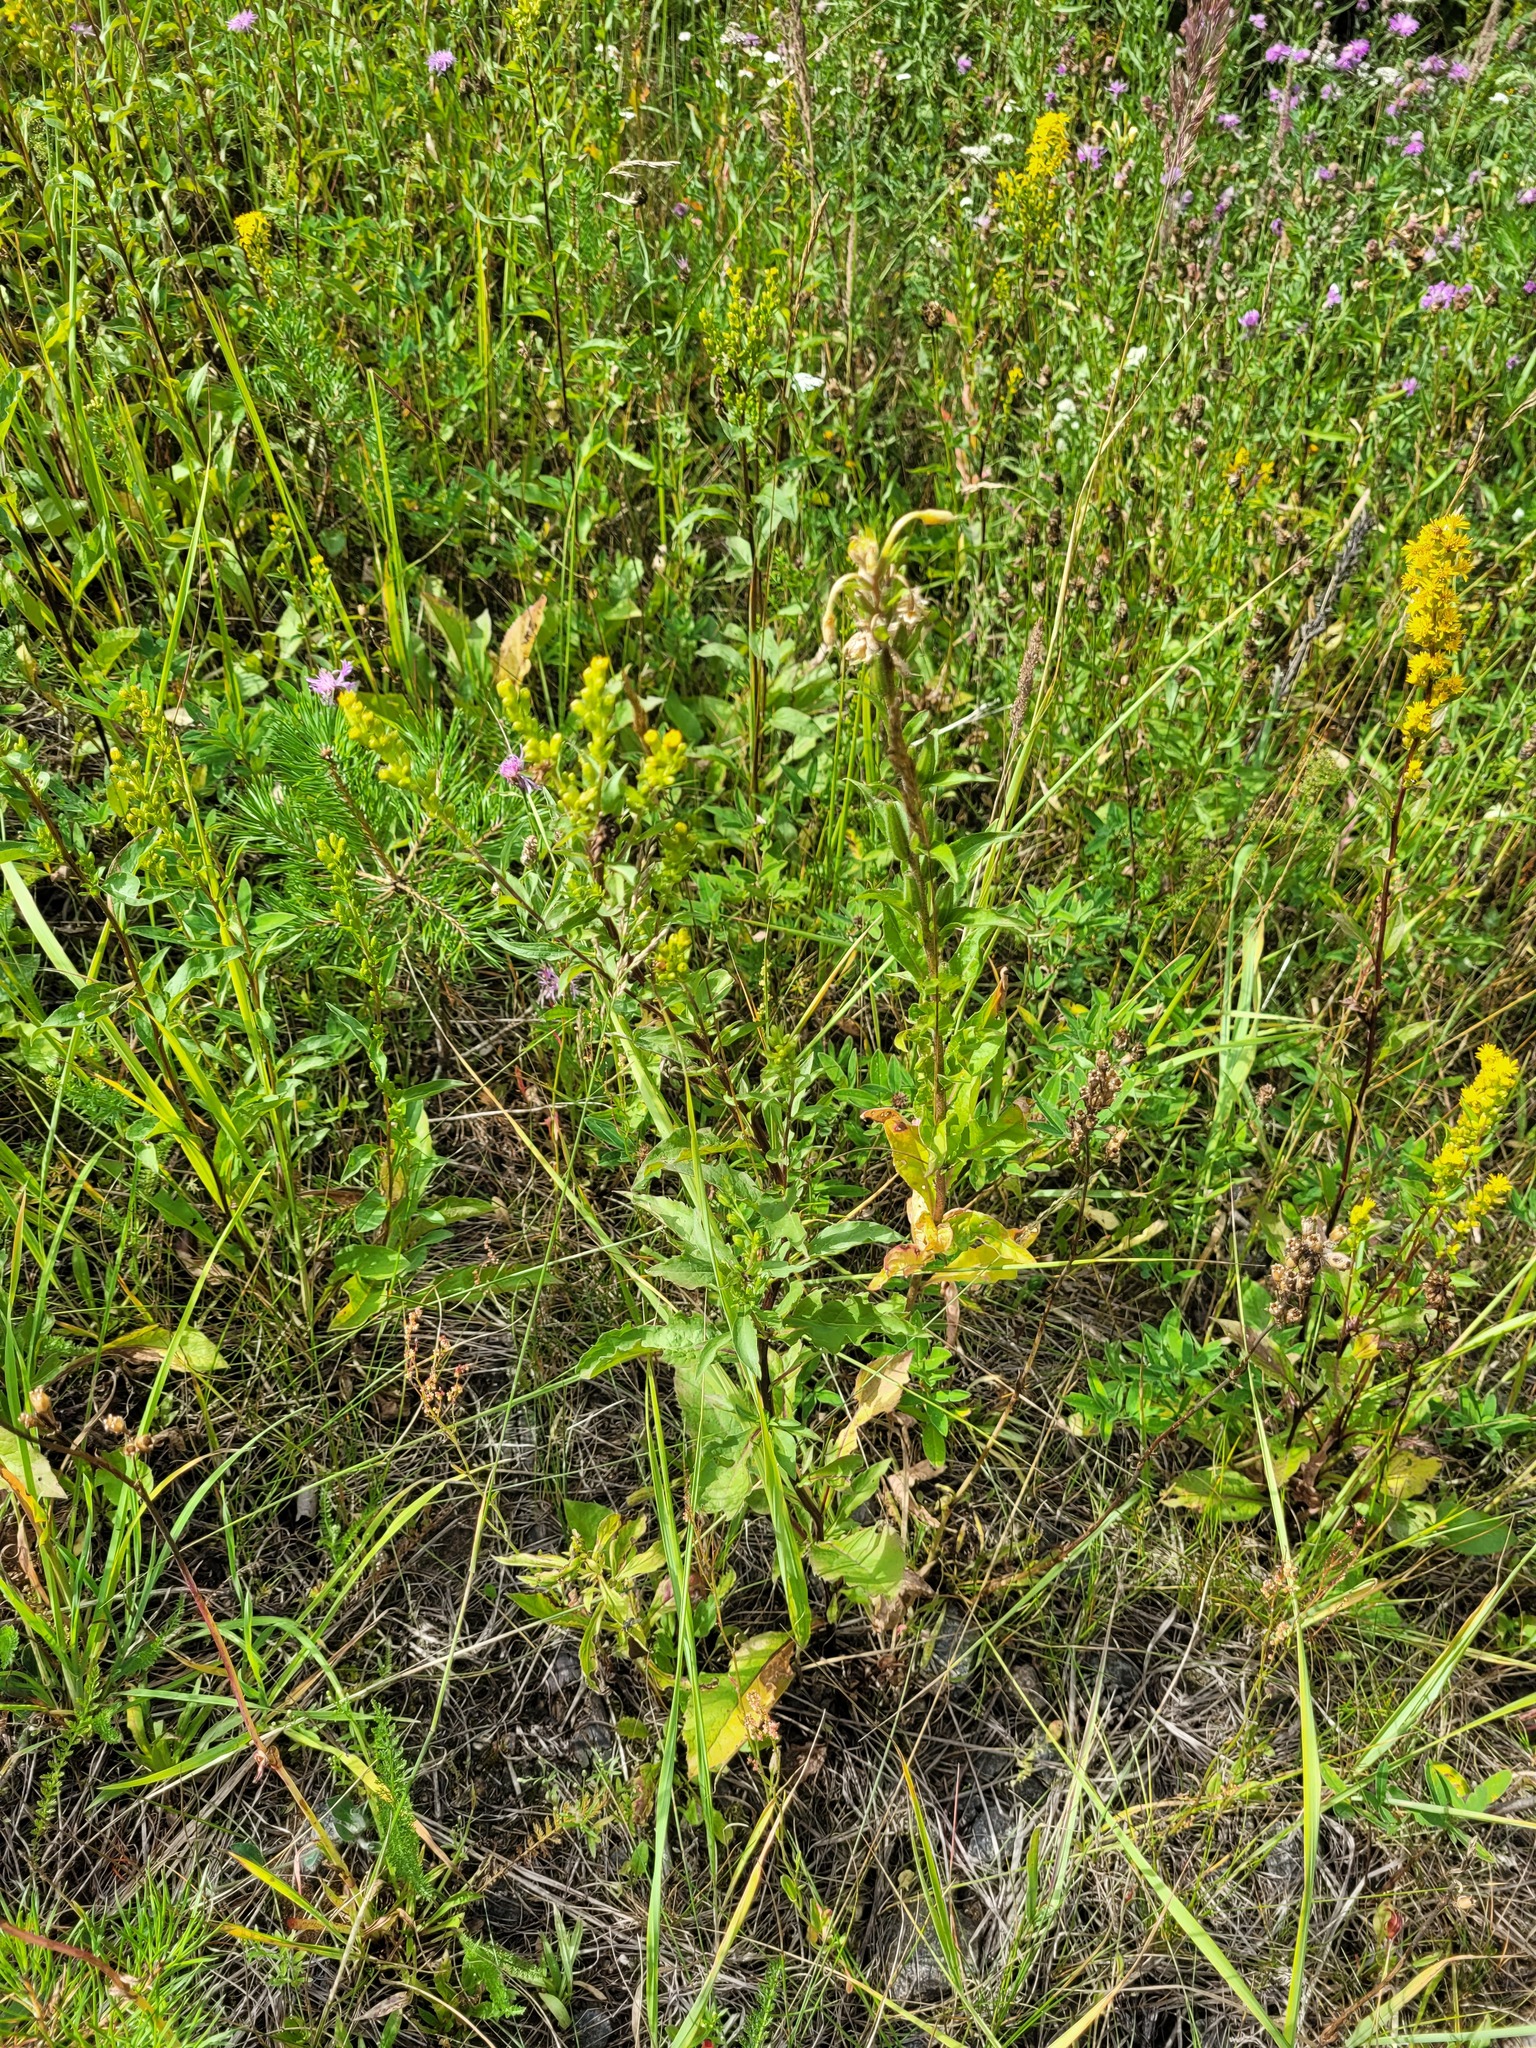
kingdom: Plantae
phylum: Tracheophyta
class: Magnoliopsida
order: Asterales
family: Asteraceae
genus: Solidago
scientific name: Solidago virgaurea
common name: Goldenrod
